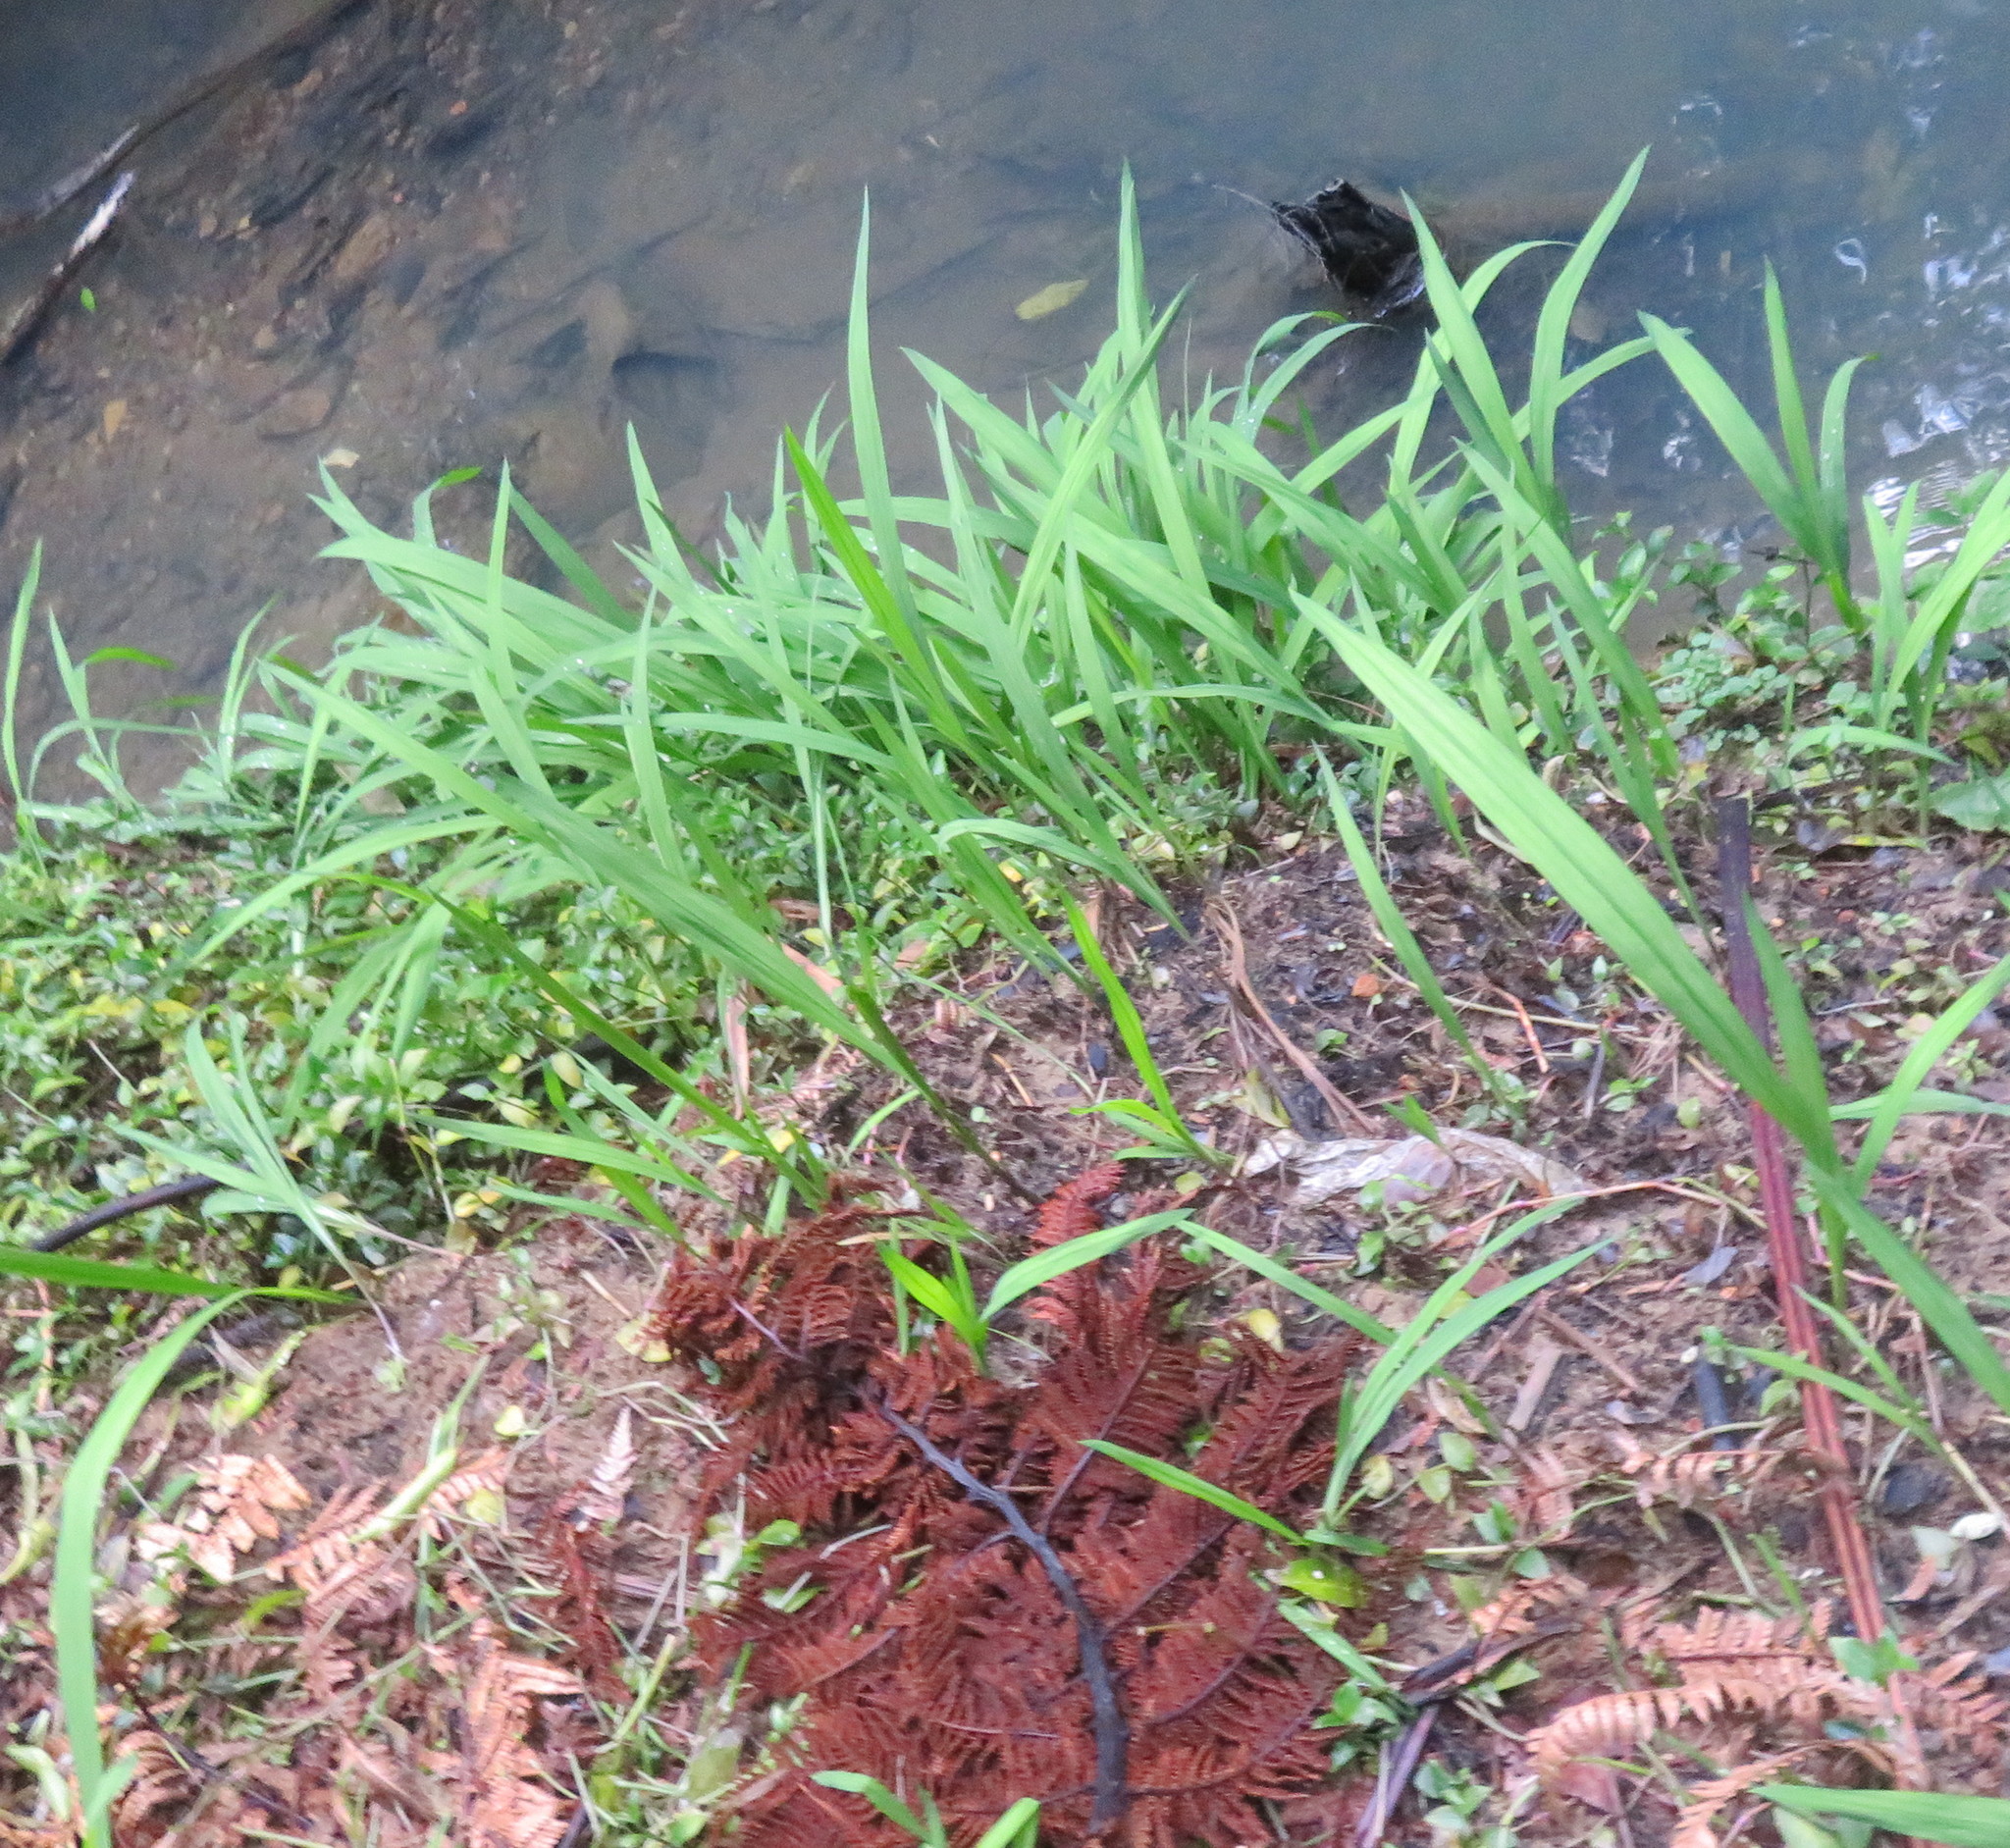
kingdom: Plantae
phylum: Tracheophyta
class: Liliopsida
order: Asparagales
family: Iridaceae
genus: Crocosmia
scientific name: Crocosmia crocosmiiflora
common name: Montbretia
